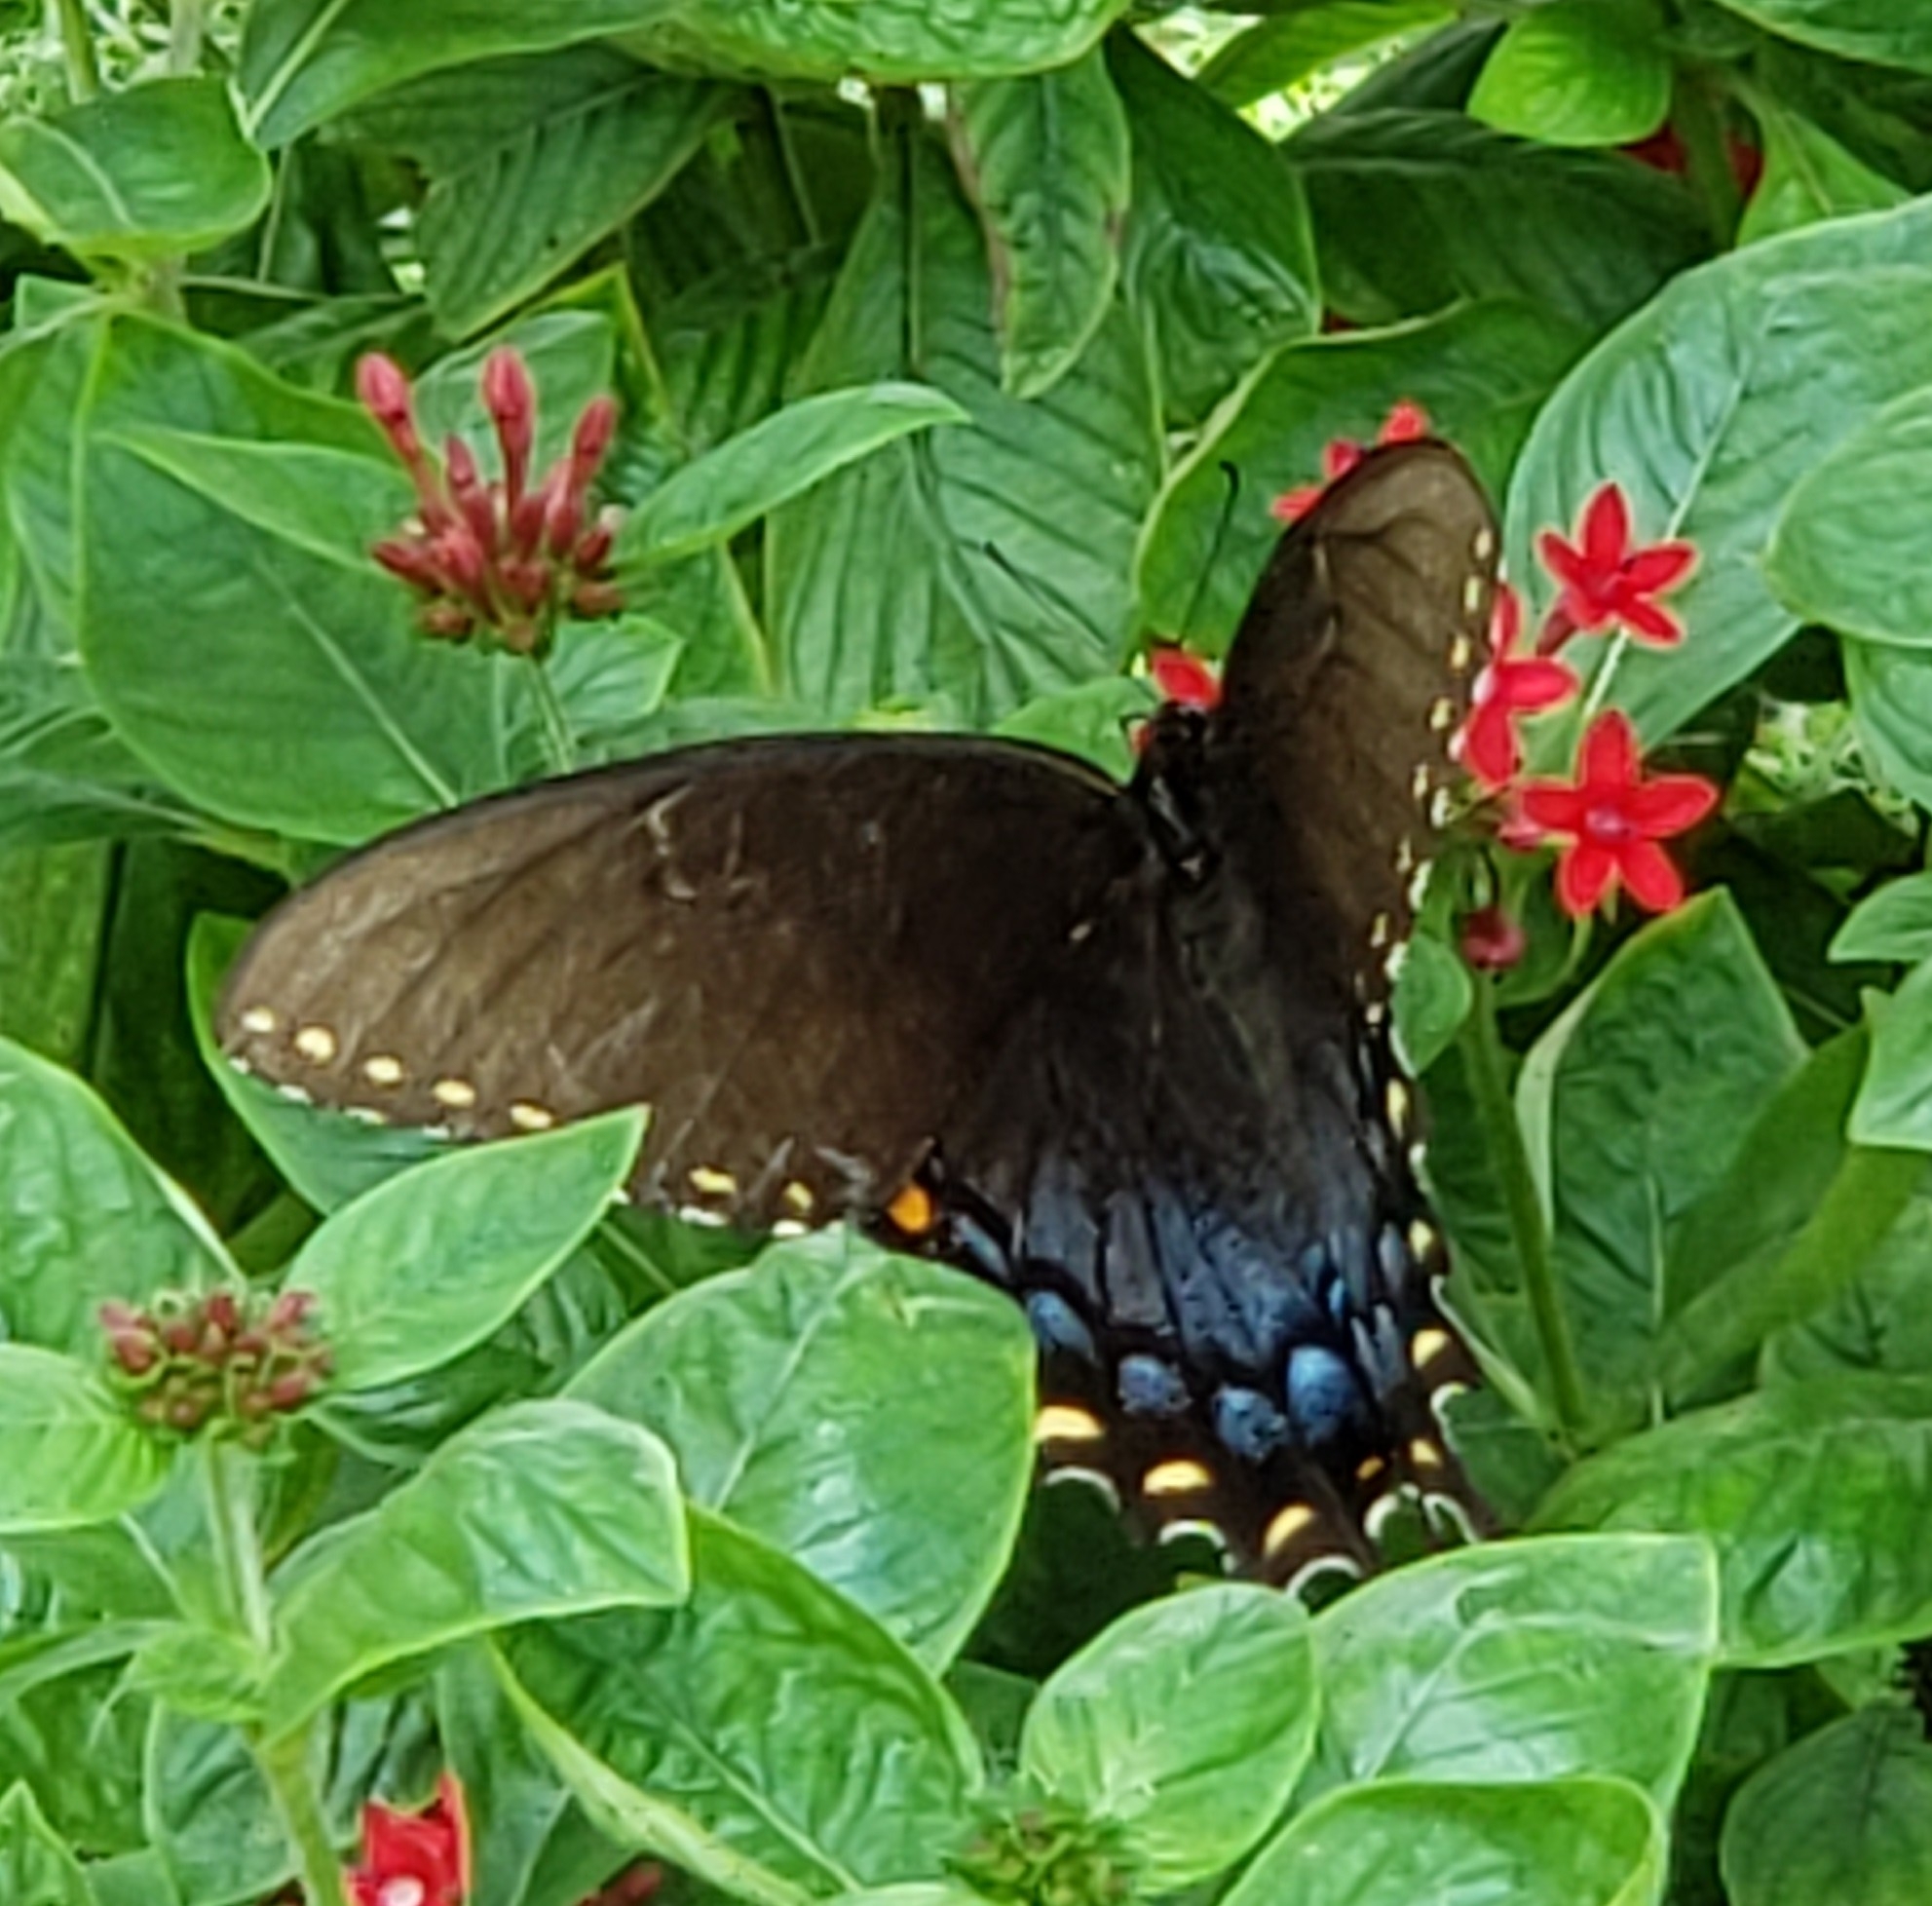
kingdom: Animalia
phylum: Arthropoda
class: Insecta
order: Lepidoptera
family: Papilionidae
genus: Papilio
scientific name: Papilio glaucus
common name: Tiger swallowtail
